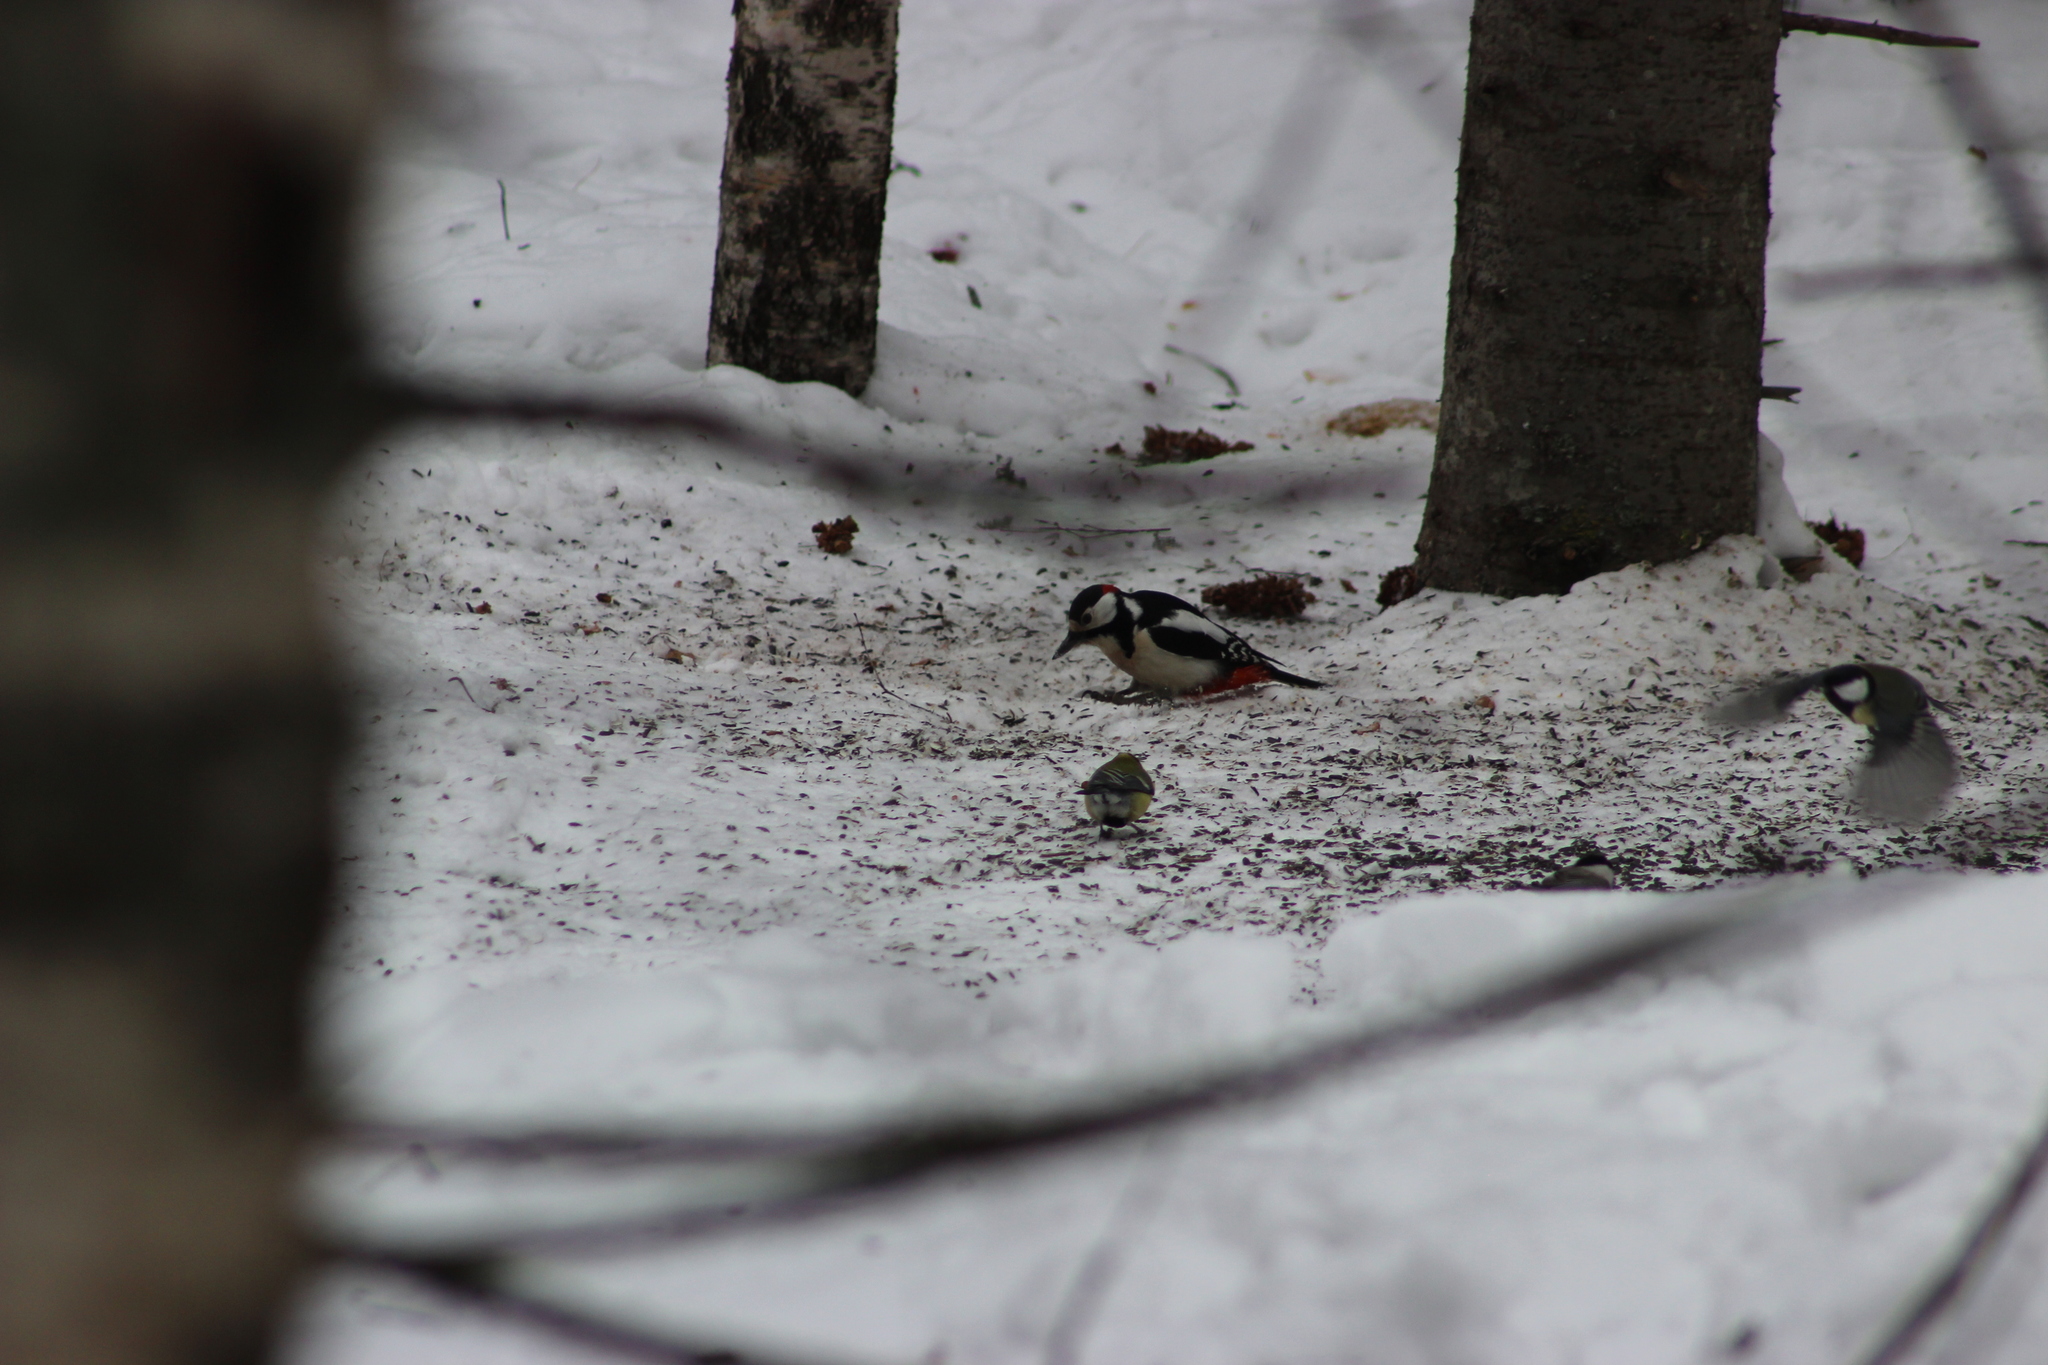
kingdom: Animalia
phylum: Chordata
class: Aves
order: Piciformes
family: Picidae
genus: Dendrocopos
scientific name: Dendrocopos major
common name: Great spotted woodpecker
